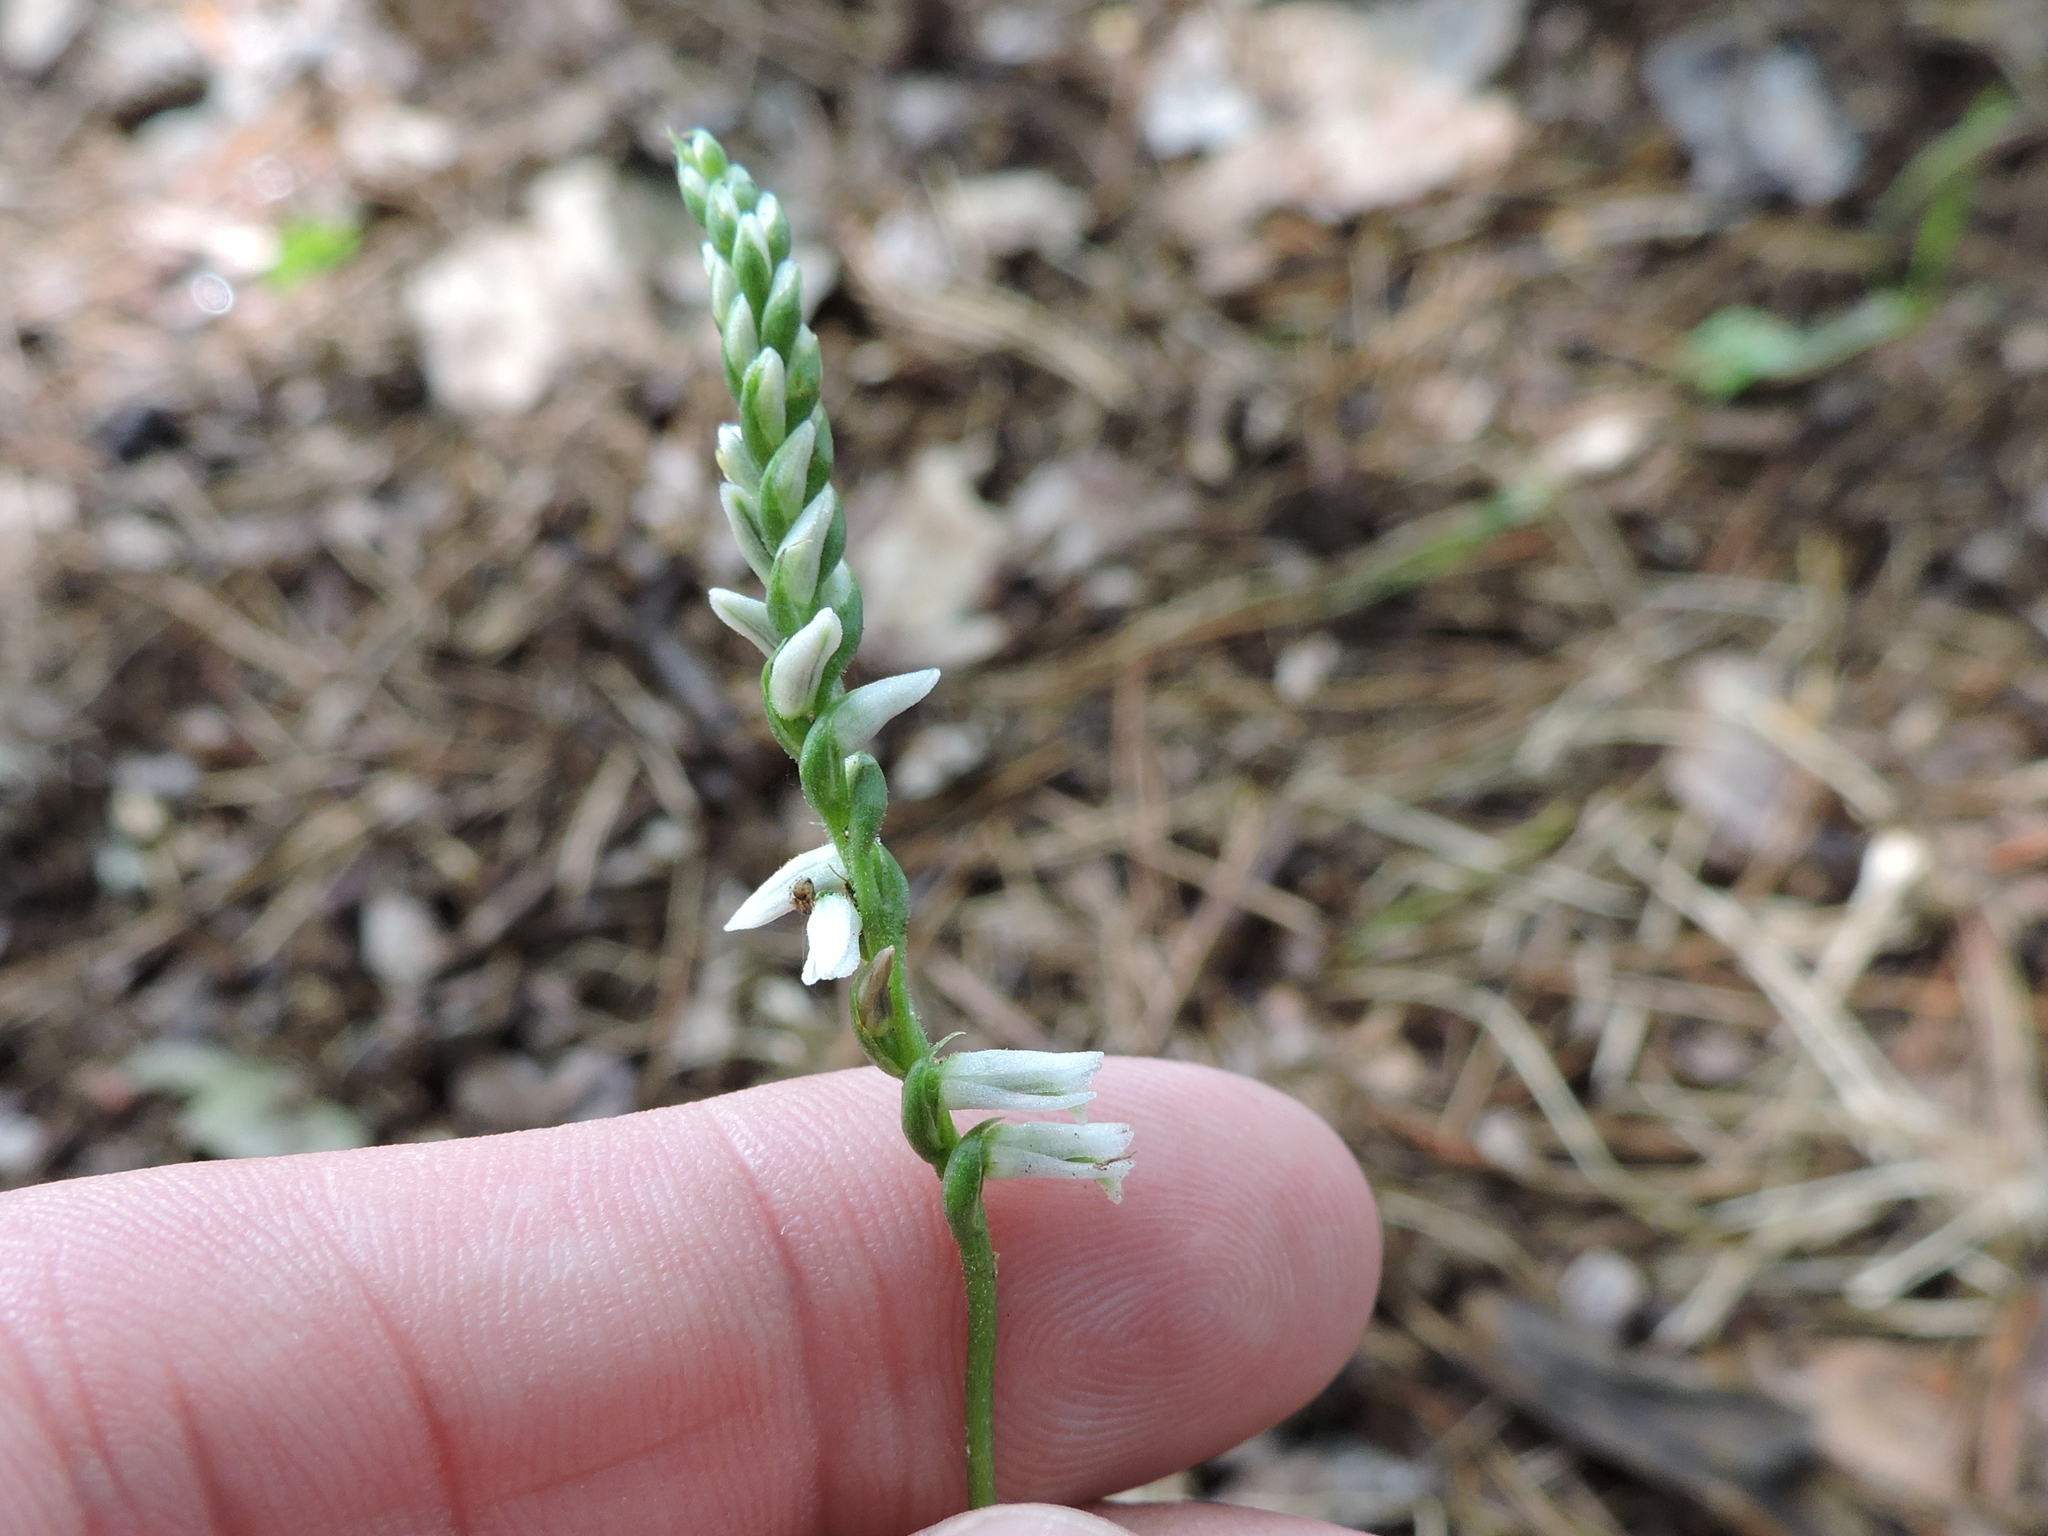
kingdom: Plantae
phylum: Tracheophyta
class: Liliopsida
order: Asparagales
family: Orchidaceae
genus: Spiranthes
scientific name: Spiranthes lacera
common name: Northern slender ladies'-tresses
